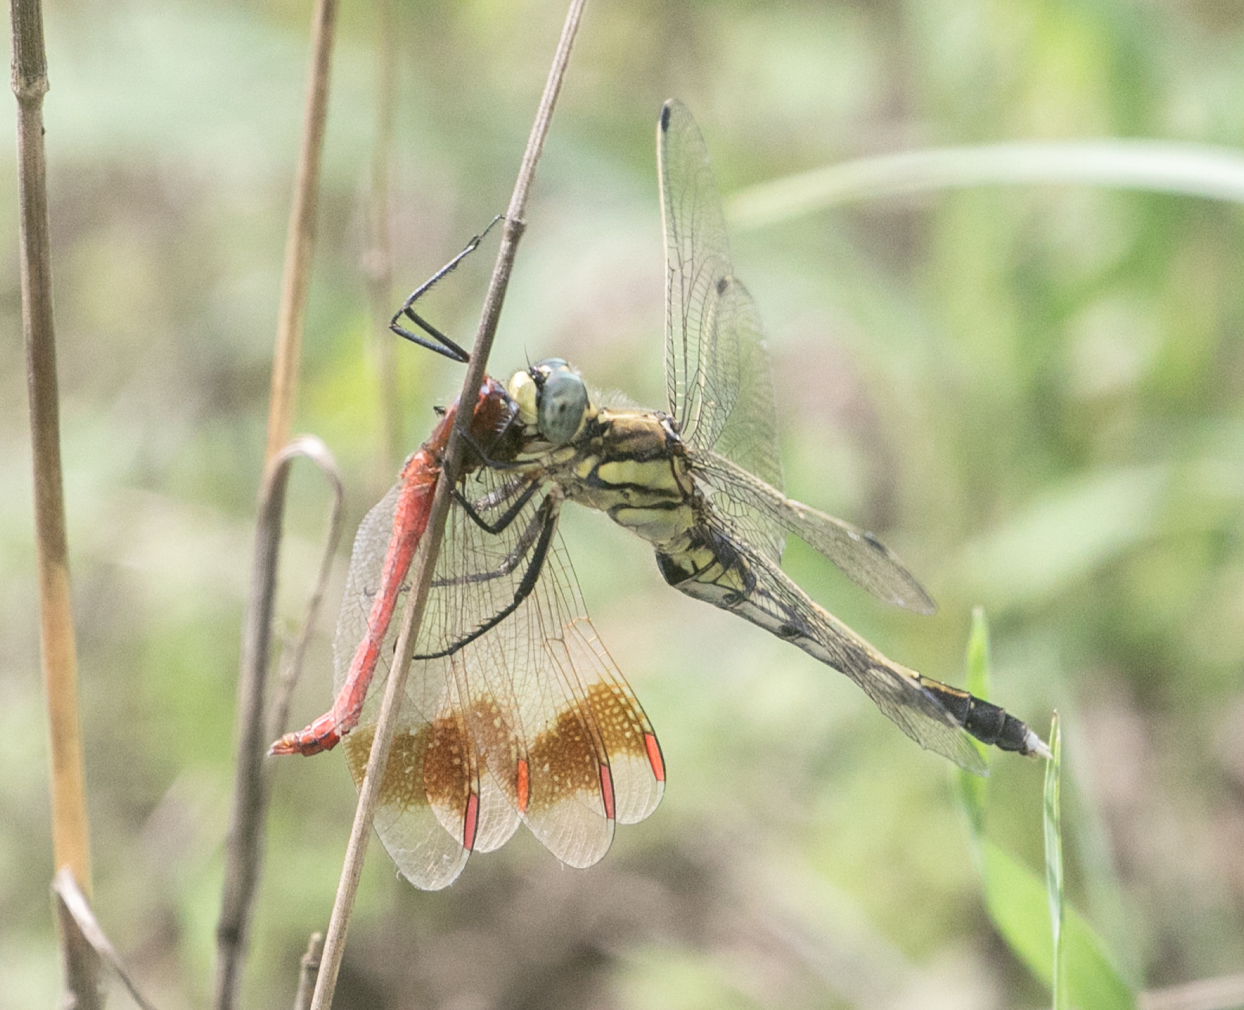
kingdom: Animalia
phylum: Arthropoda
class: Insecta
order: Odonata
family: Libellulidae
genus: Orthetrum
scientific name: Orthetrum albistylum
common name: White-tailed skimmer
